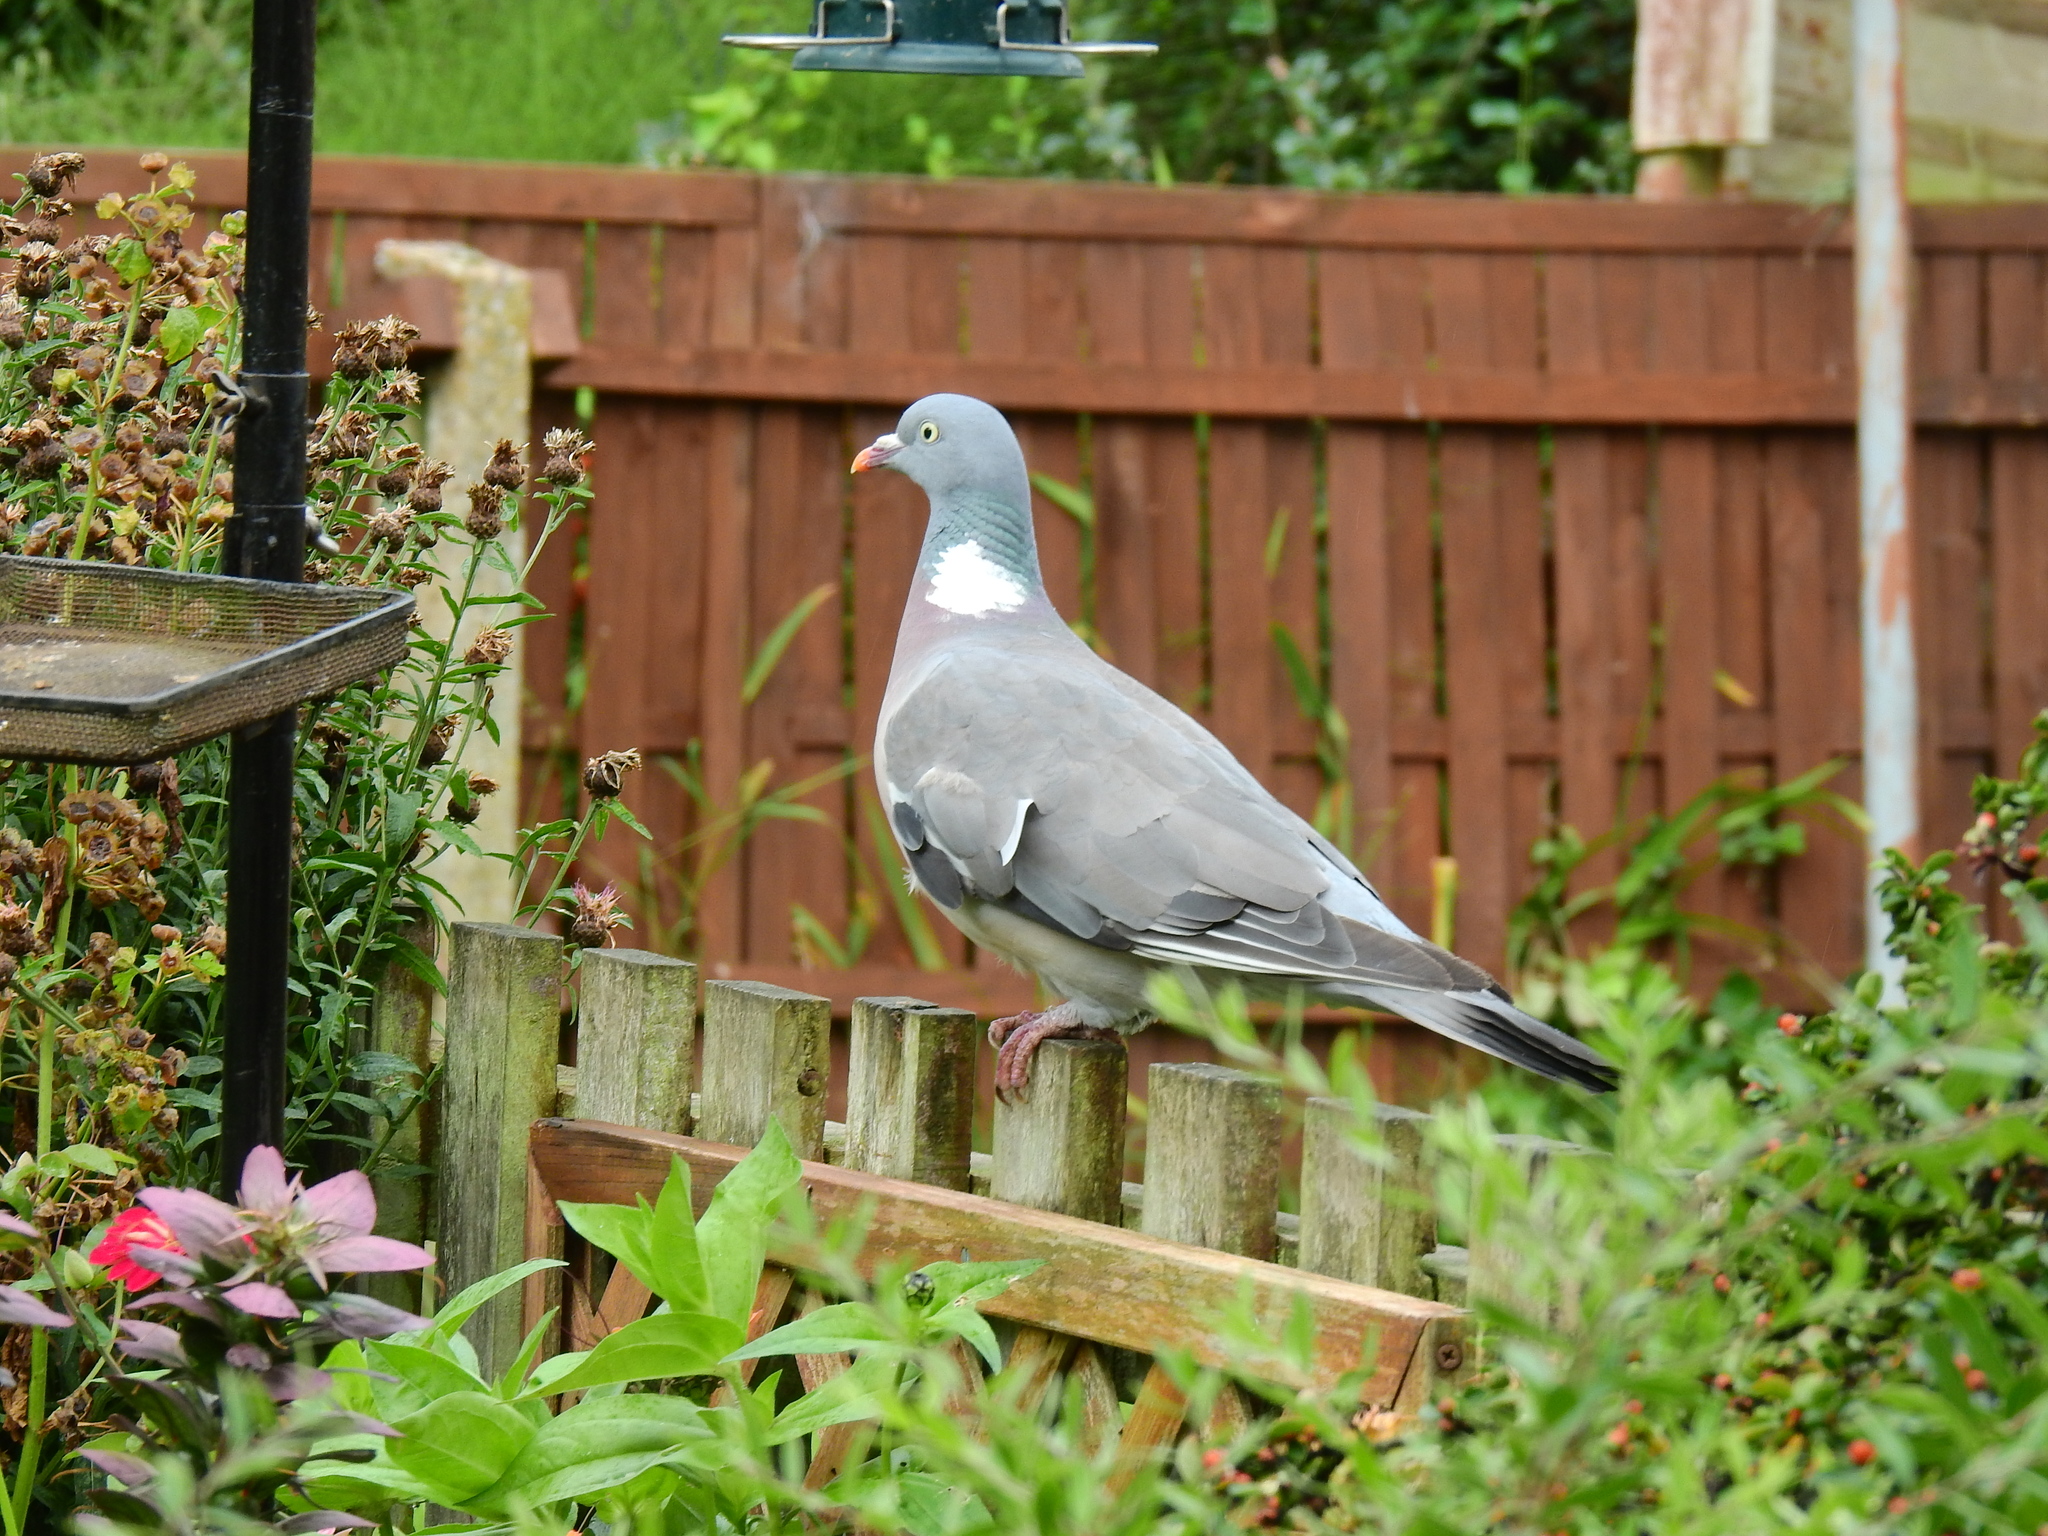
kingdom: Animalia
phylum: Chordata
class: Aves
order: Columbiformes
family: Columbidae
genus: Columba
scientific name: Columba palumbus
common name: Common wood pigeon
